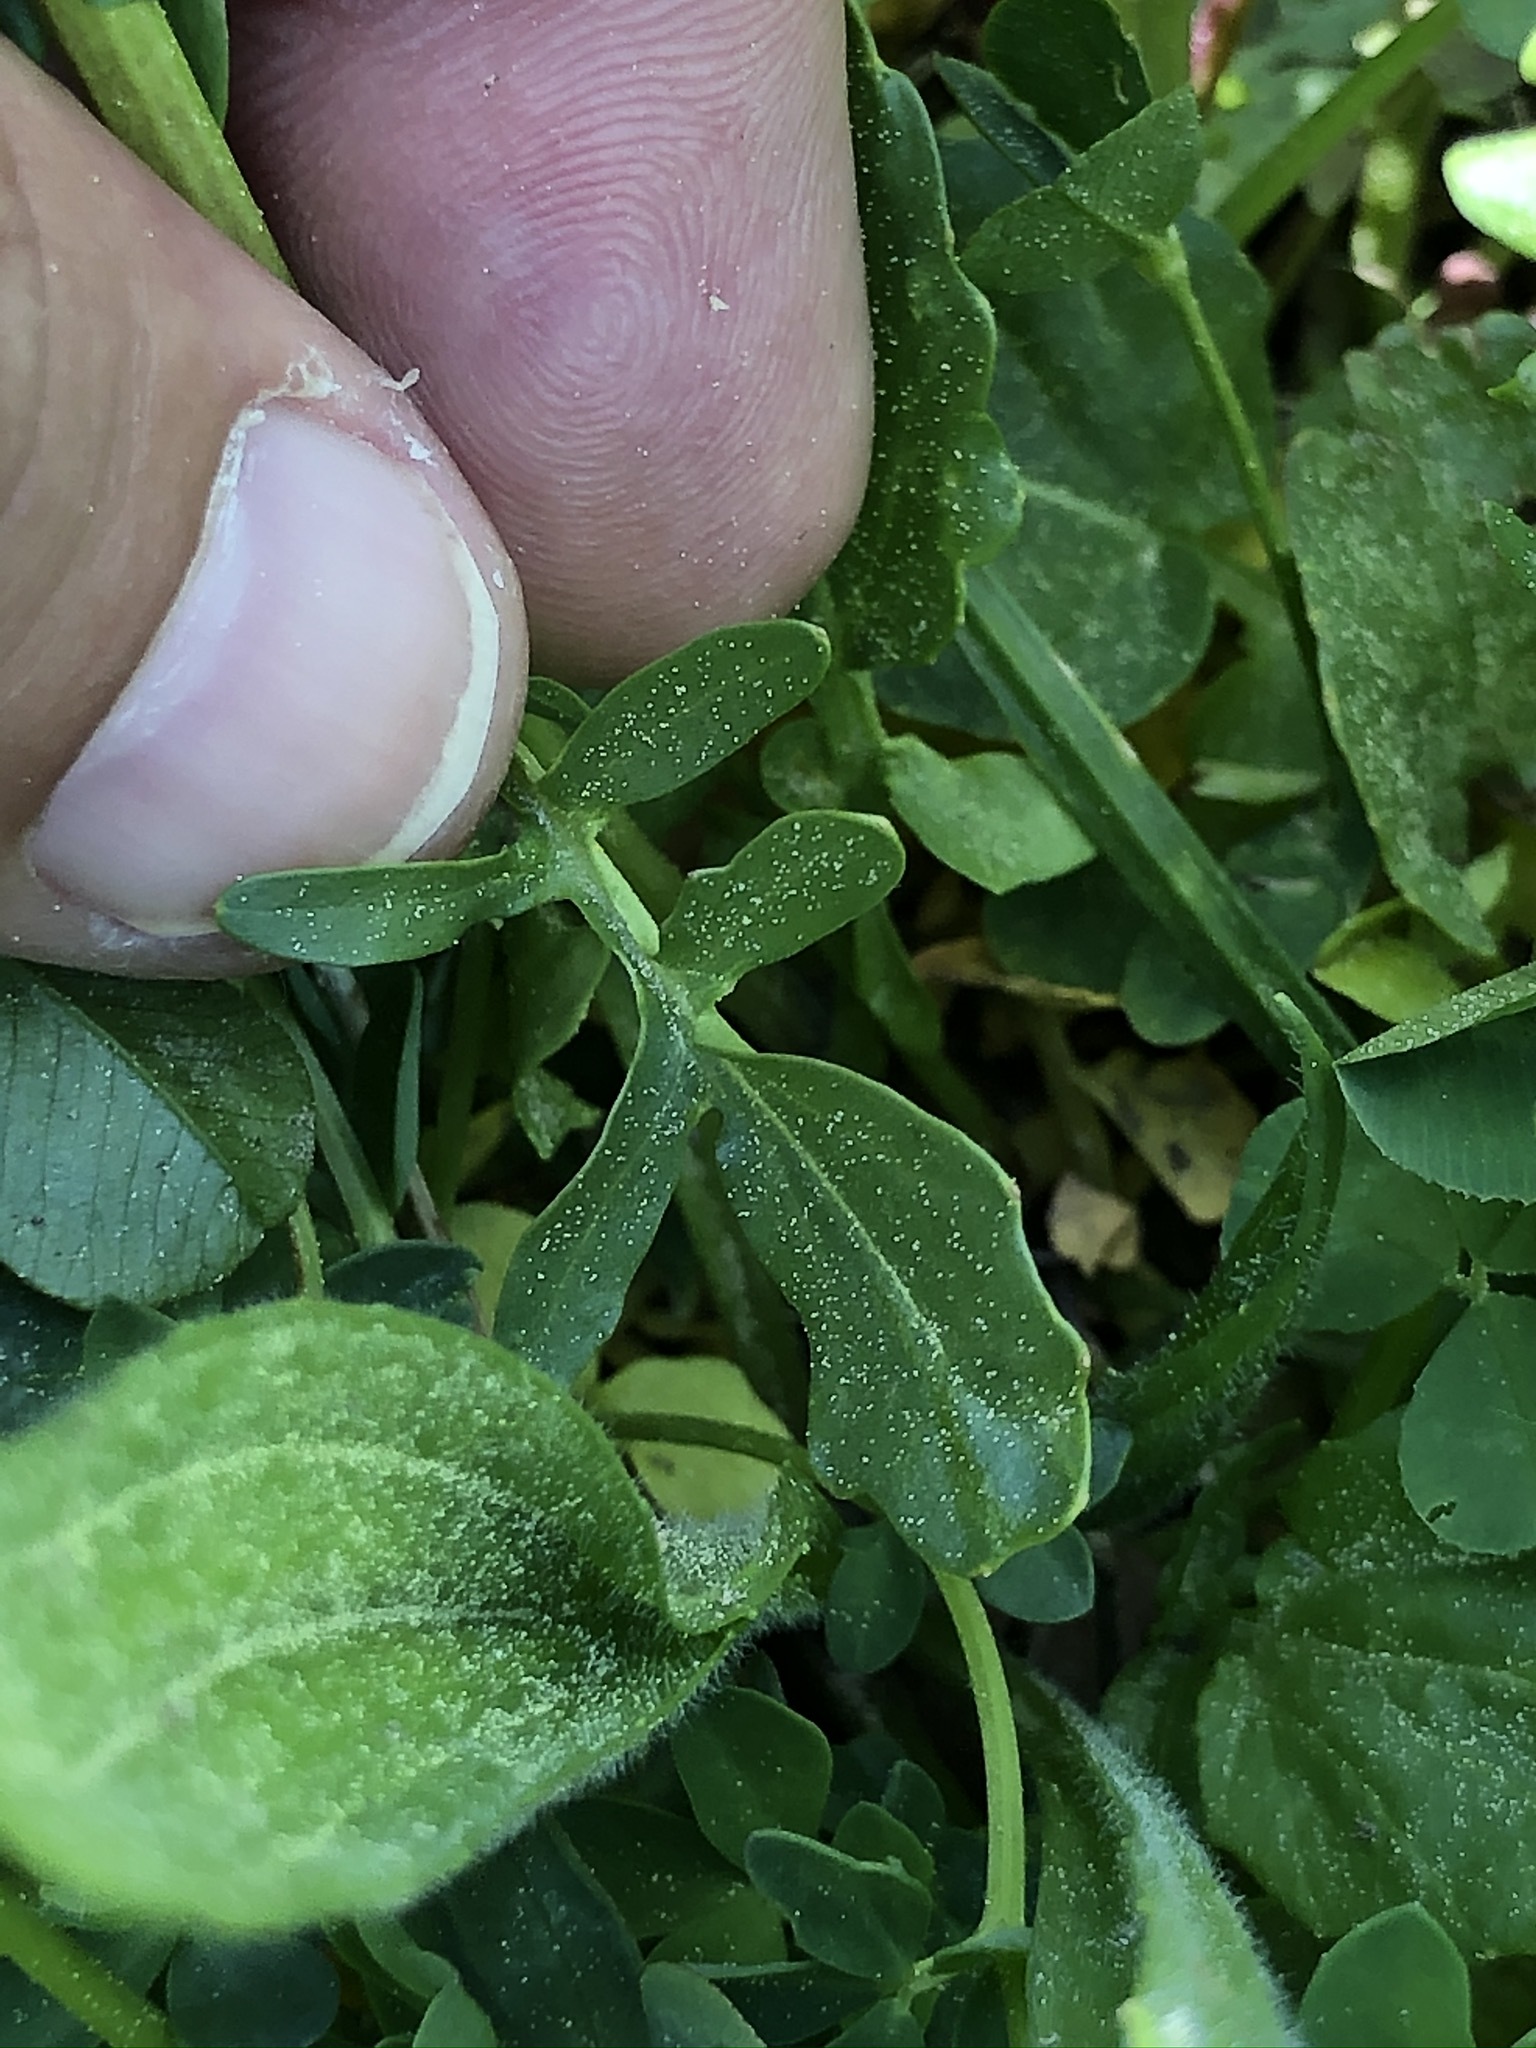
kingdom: Plantae
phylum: Tracheophyta
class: Magnoliopsida
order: Brassicales
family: Brassicaceae
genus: Barbarea
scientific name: Barbarea vulgaris
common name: Cressy-greens
